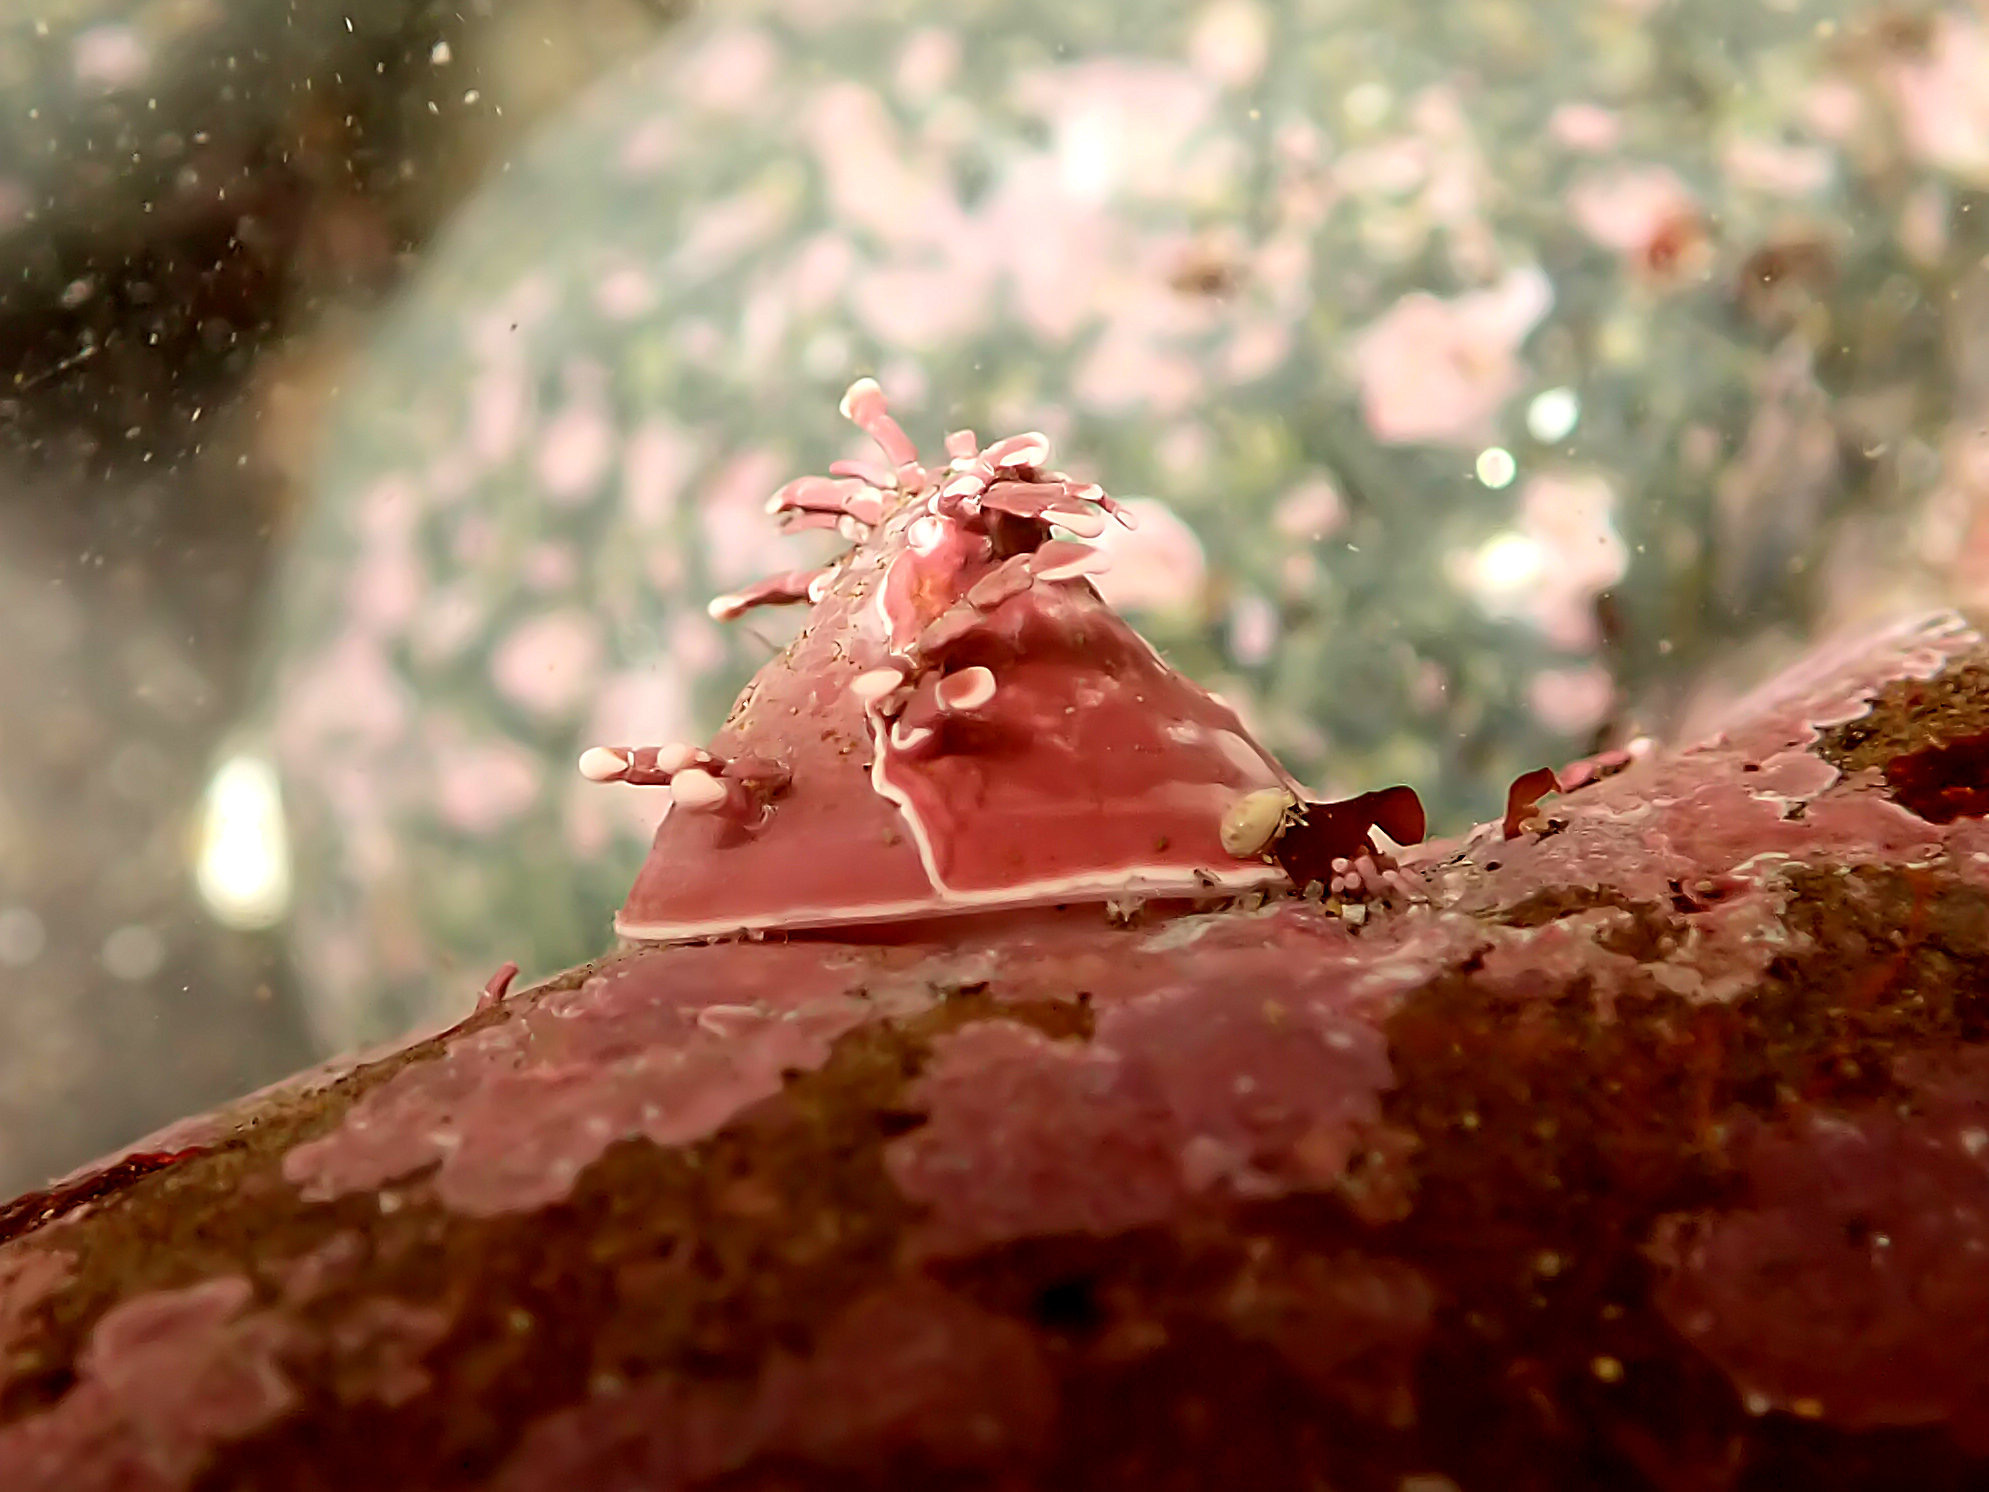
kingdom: Animalia
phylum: Mollusca
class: Gastropoda
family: Acmaeidae
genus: Acmaea
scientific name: Acmaea mitra
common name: Pacific white cap limpet
